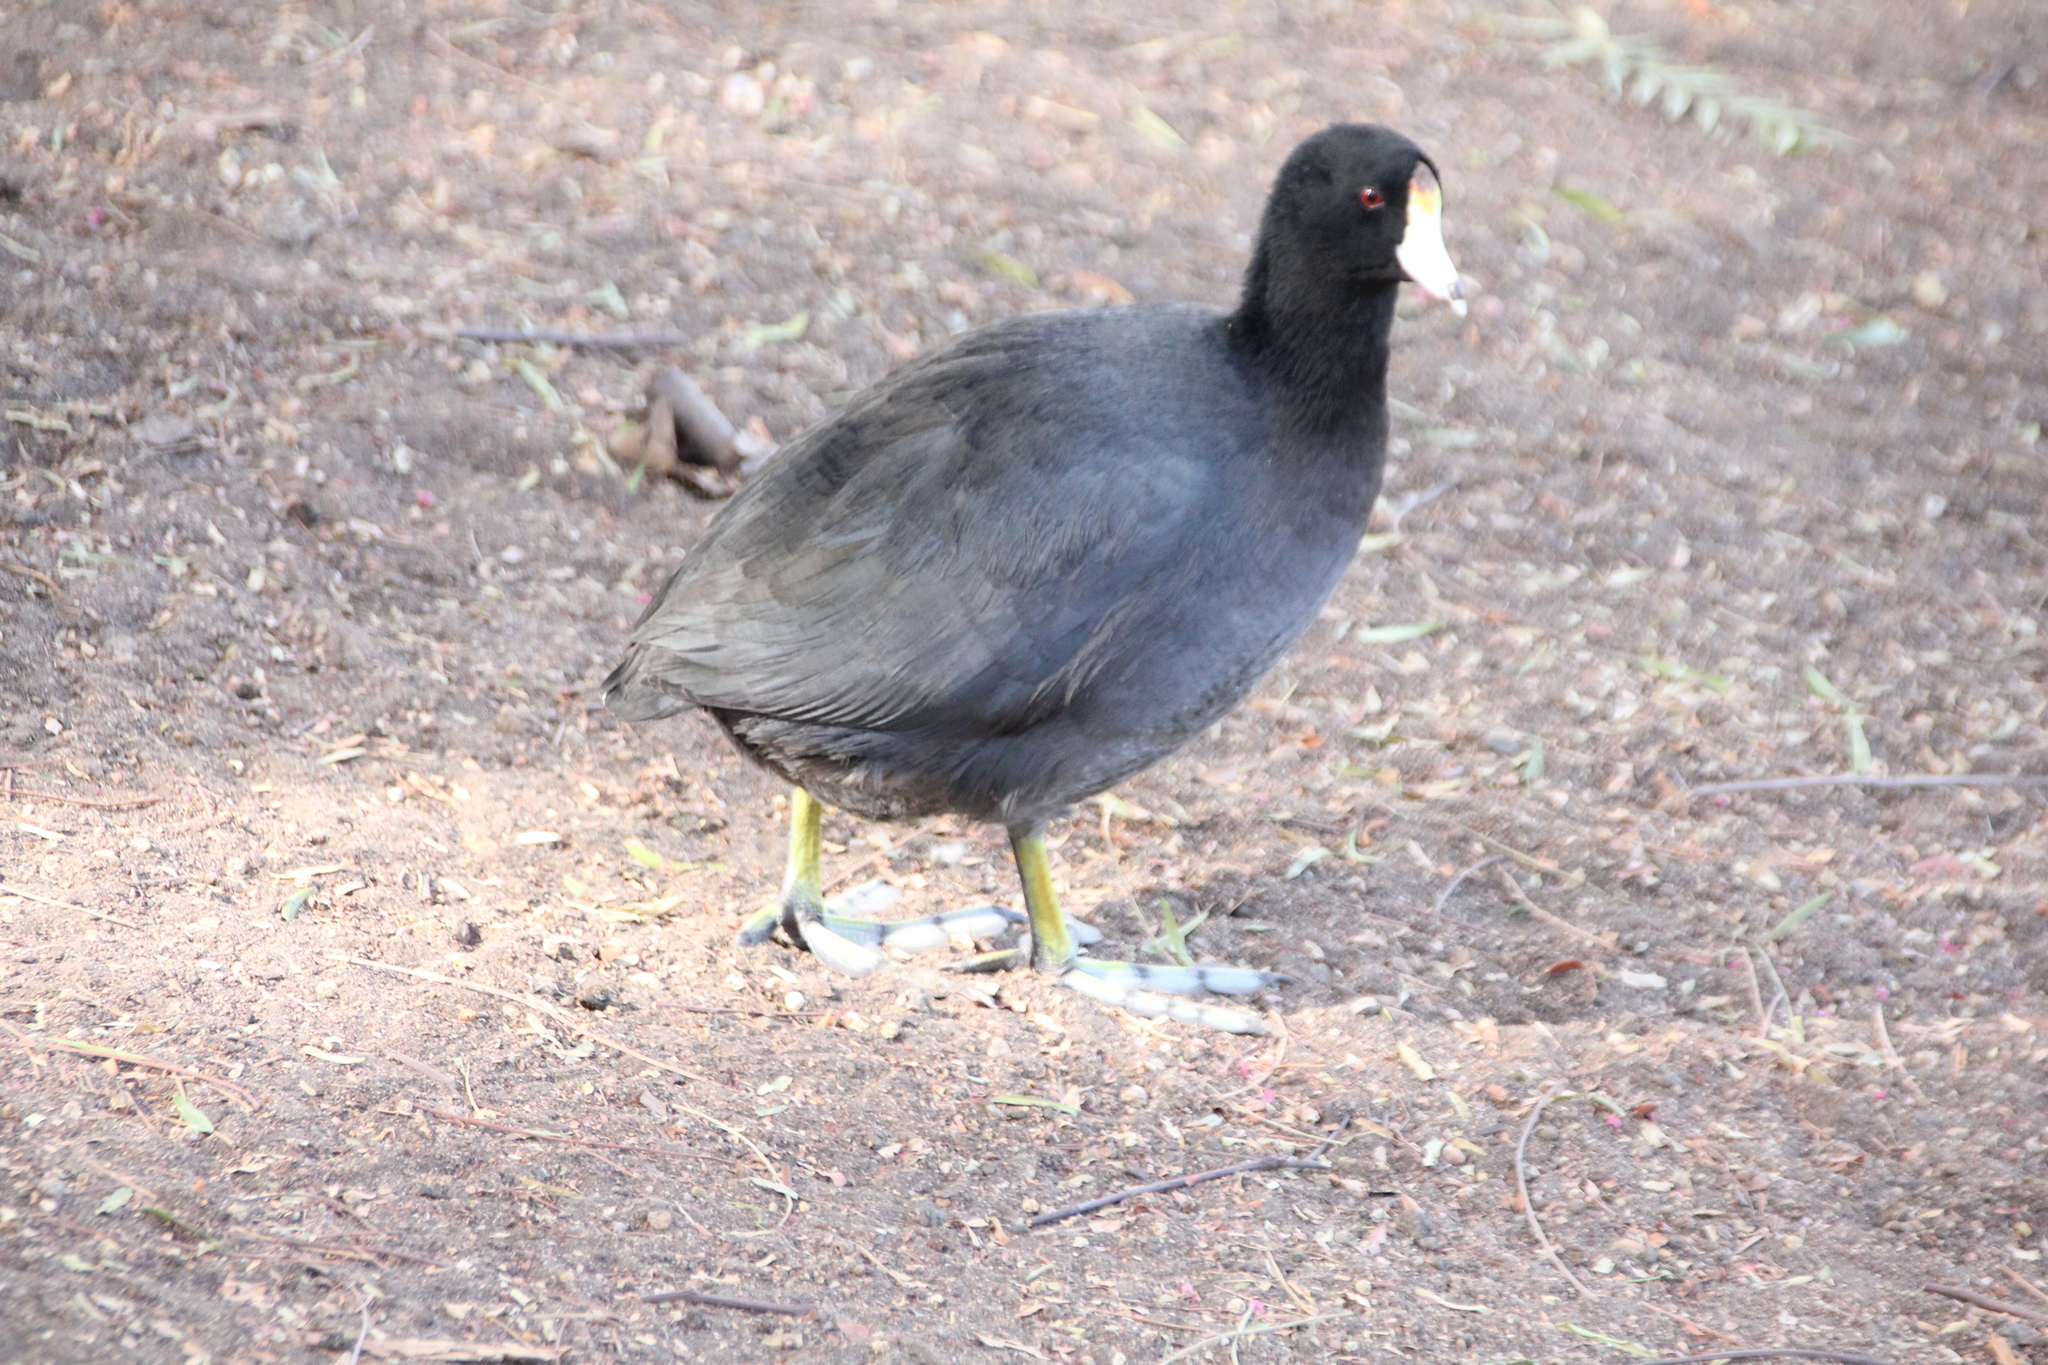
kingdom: Animalia
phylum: Chordata
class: Aves
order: Gruiformes
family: Rallidae
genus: Fulica
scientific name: Fulica americana
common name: American coot
